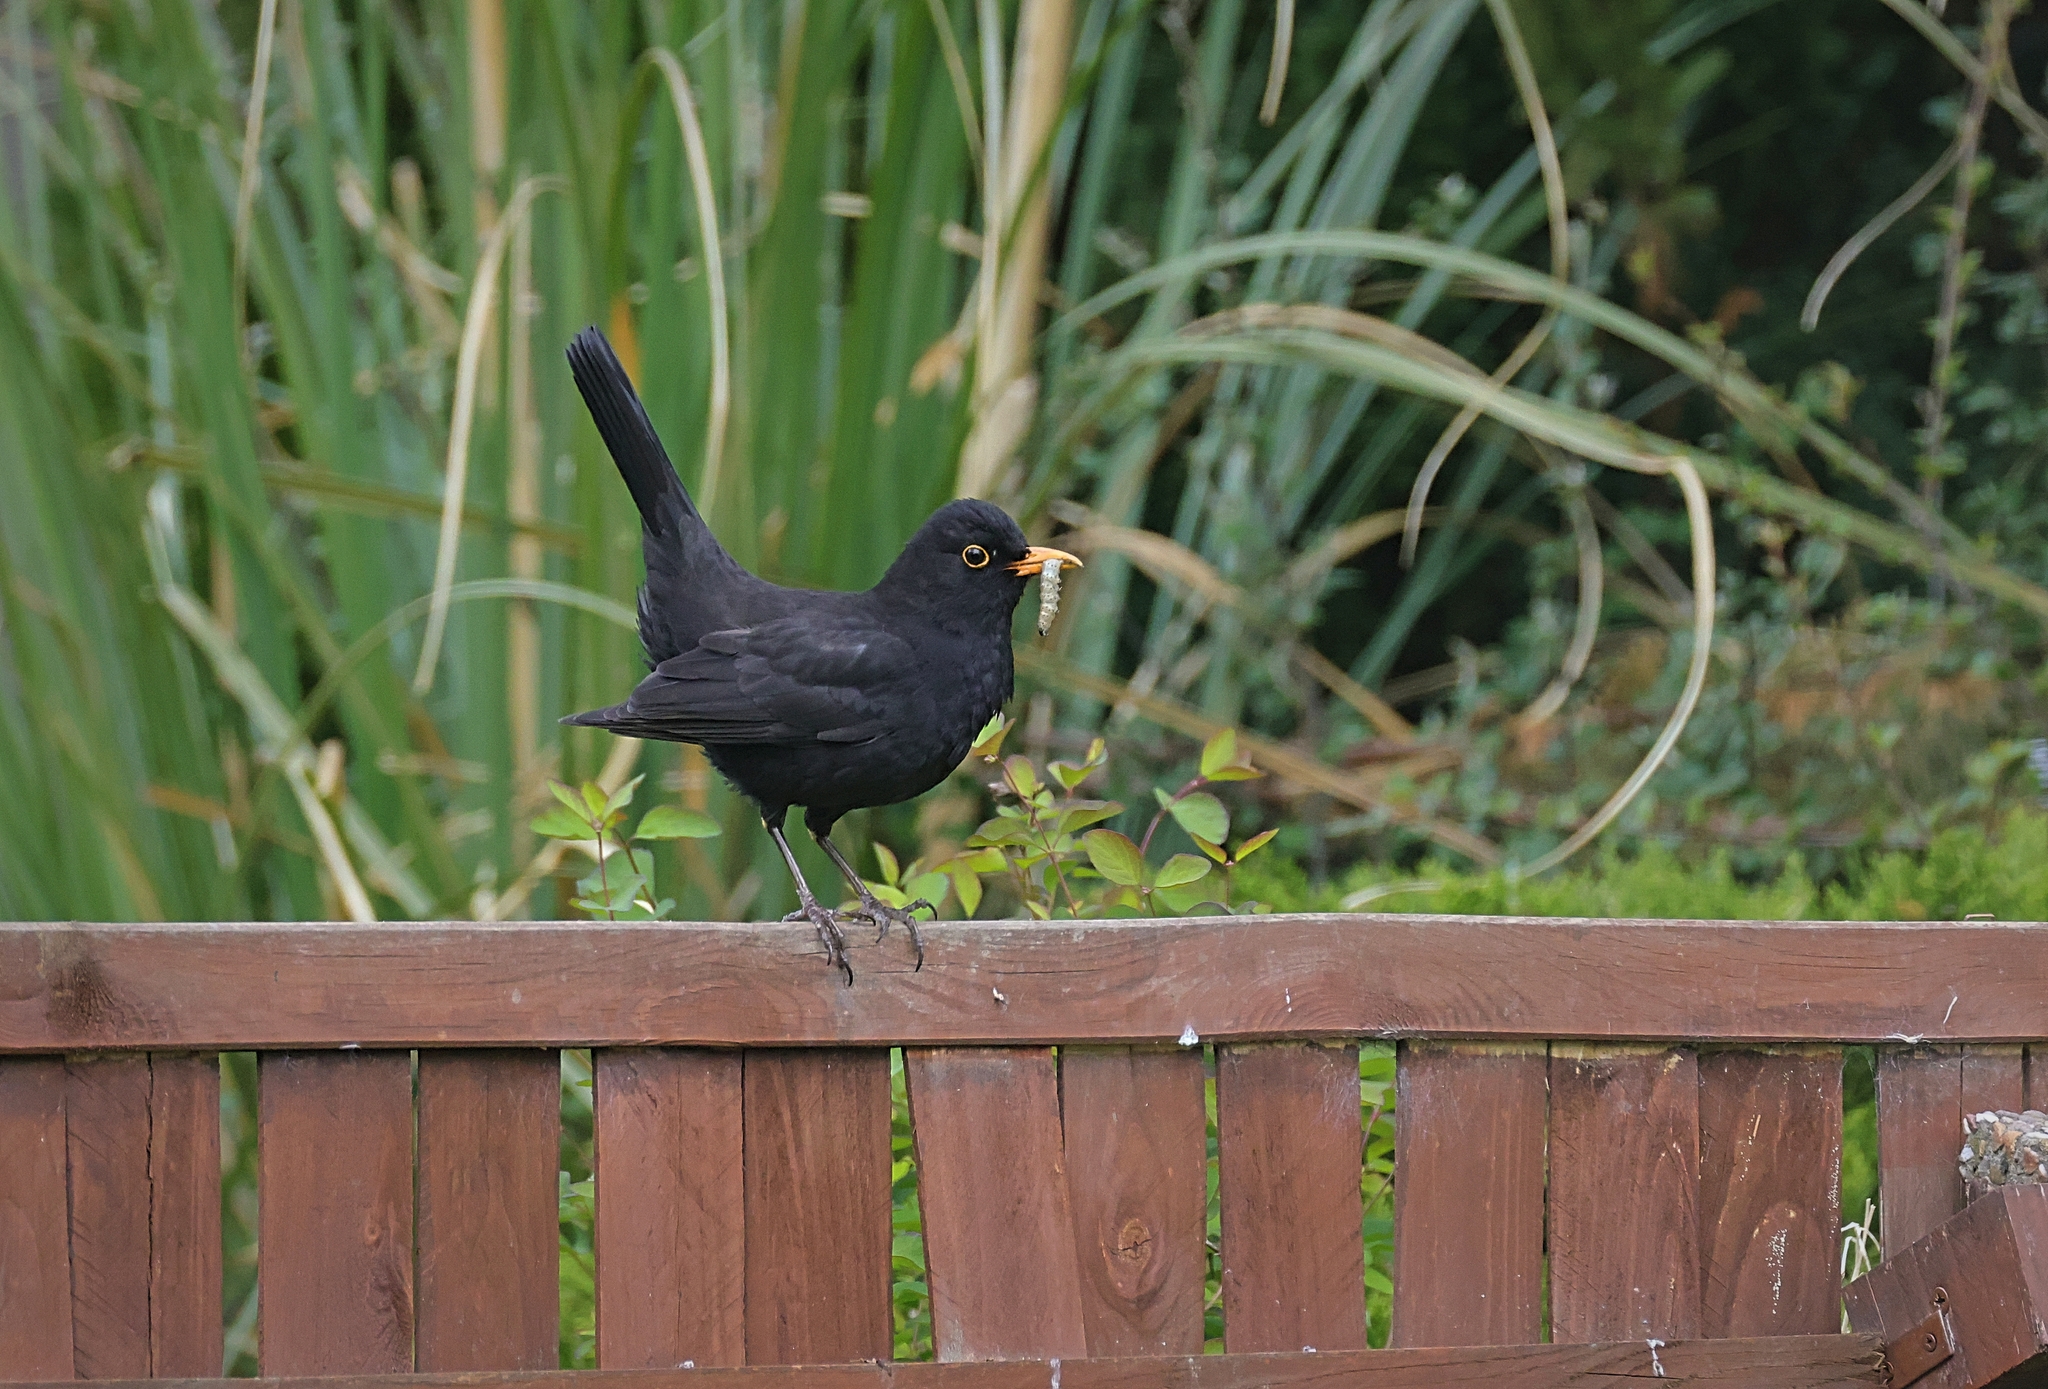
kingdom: Animalia
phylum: Chordata
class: Aves
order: Passeriformes
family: Turdidae
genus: Turdus
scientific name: Turdus merula
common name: Common blackbird
